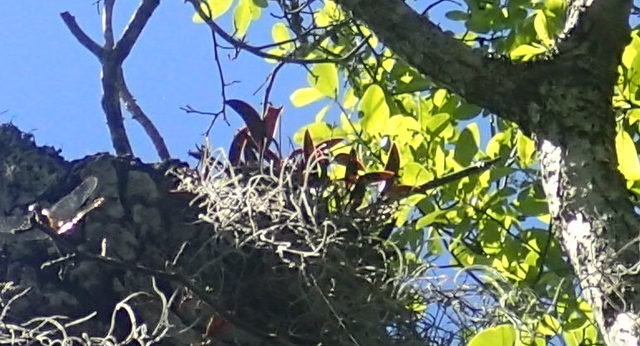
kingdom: Plantae
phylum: Tracheophyta
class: Liliopsida
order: Asparagales
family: Orchidaceae
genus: Epidendrum
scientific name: Epidendrum conopseum
